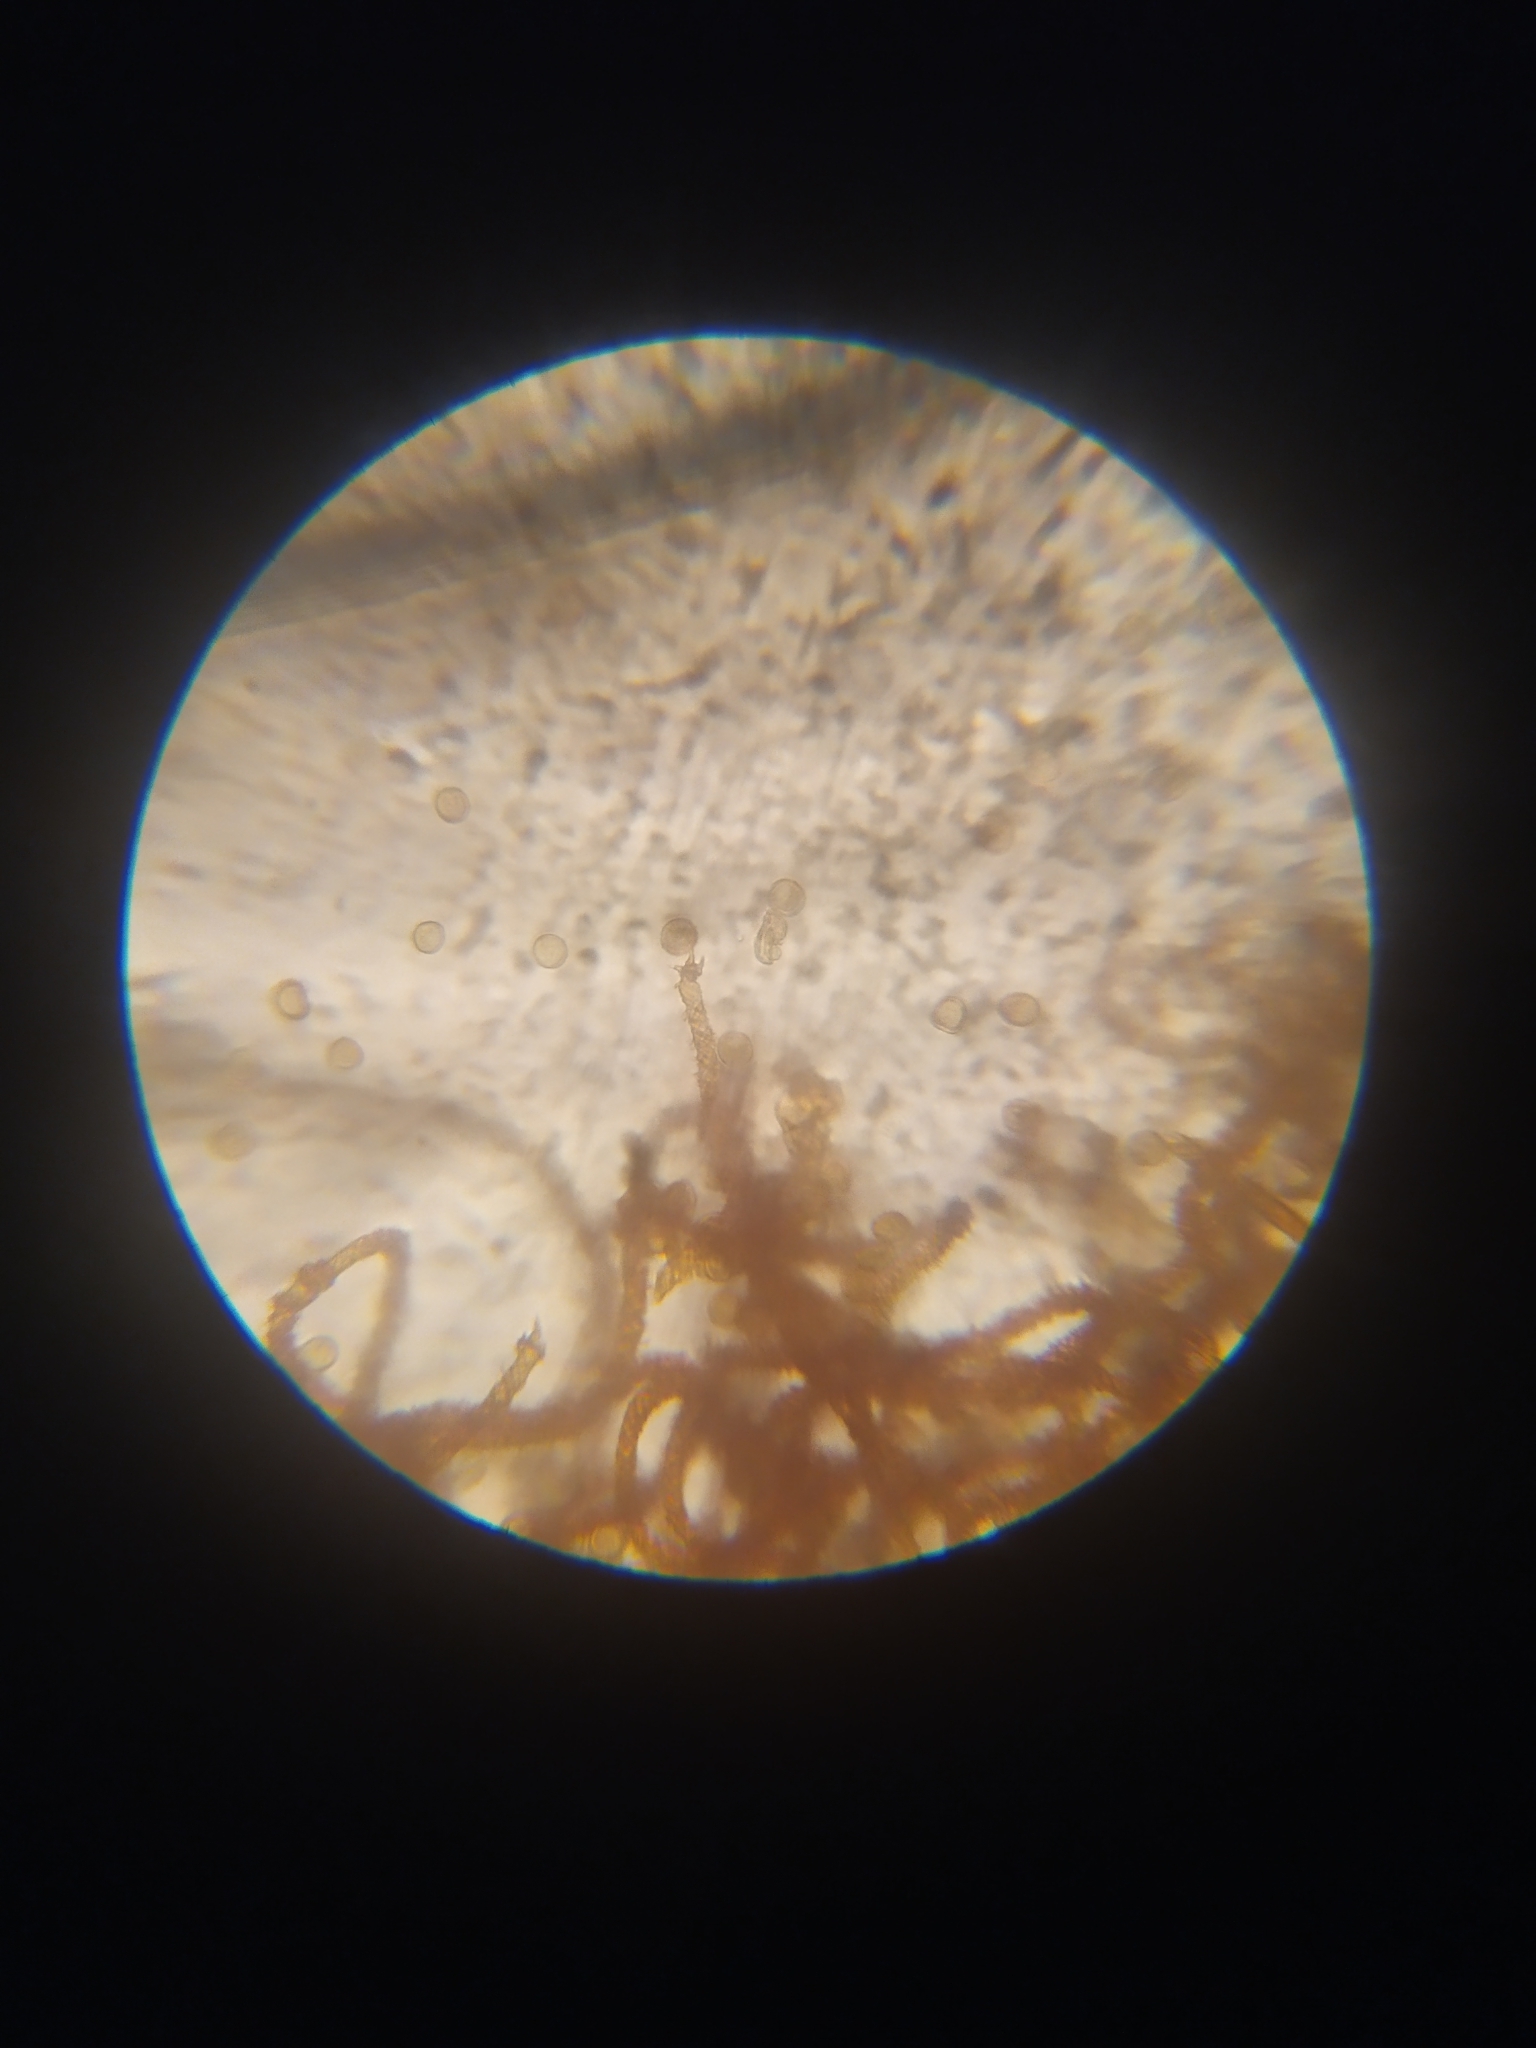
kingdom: Protozoa
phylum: Mycetozoa
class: Myxomycetes
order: Trichiales
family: Trichiaceae
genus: Metatrichia
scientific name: Metatrichia vesparia
